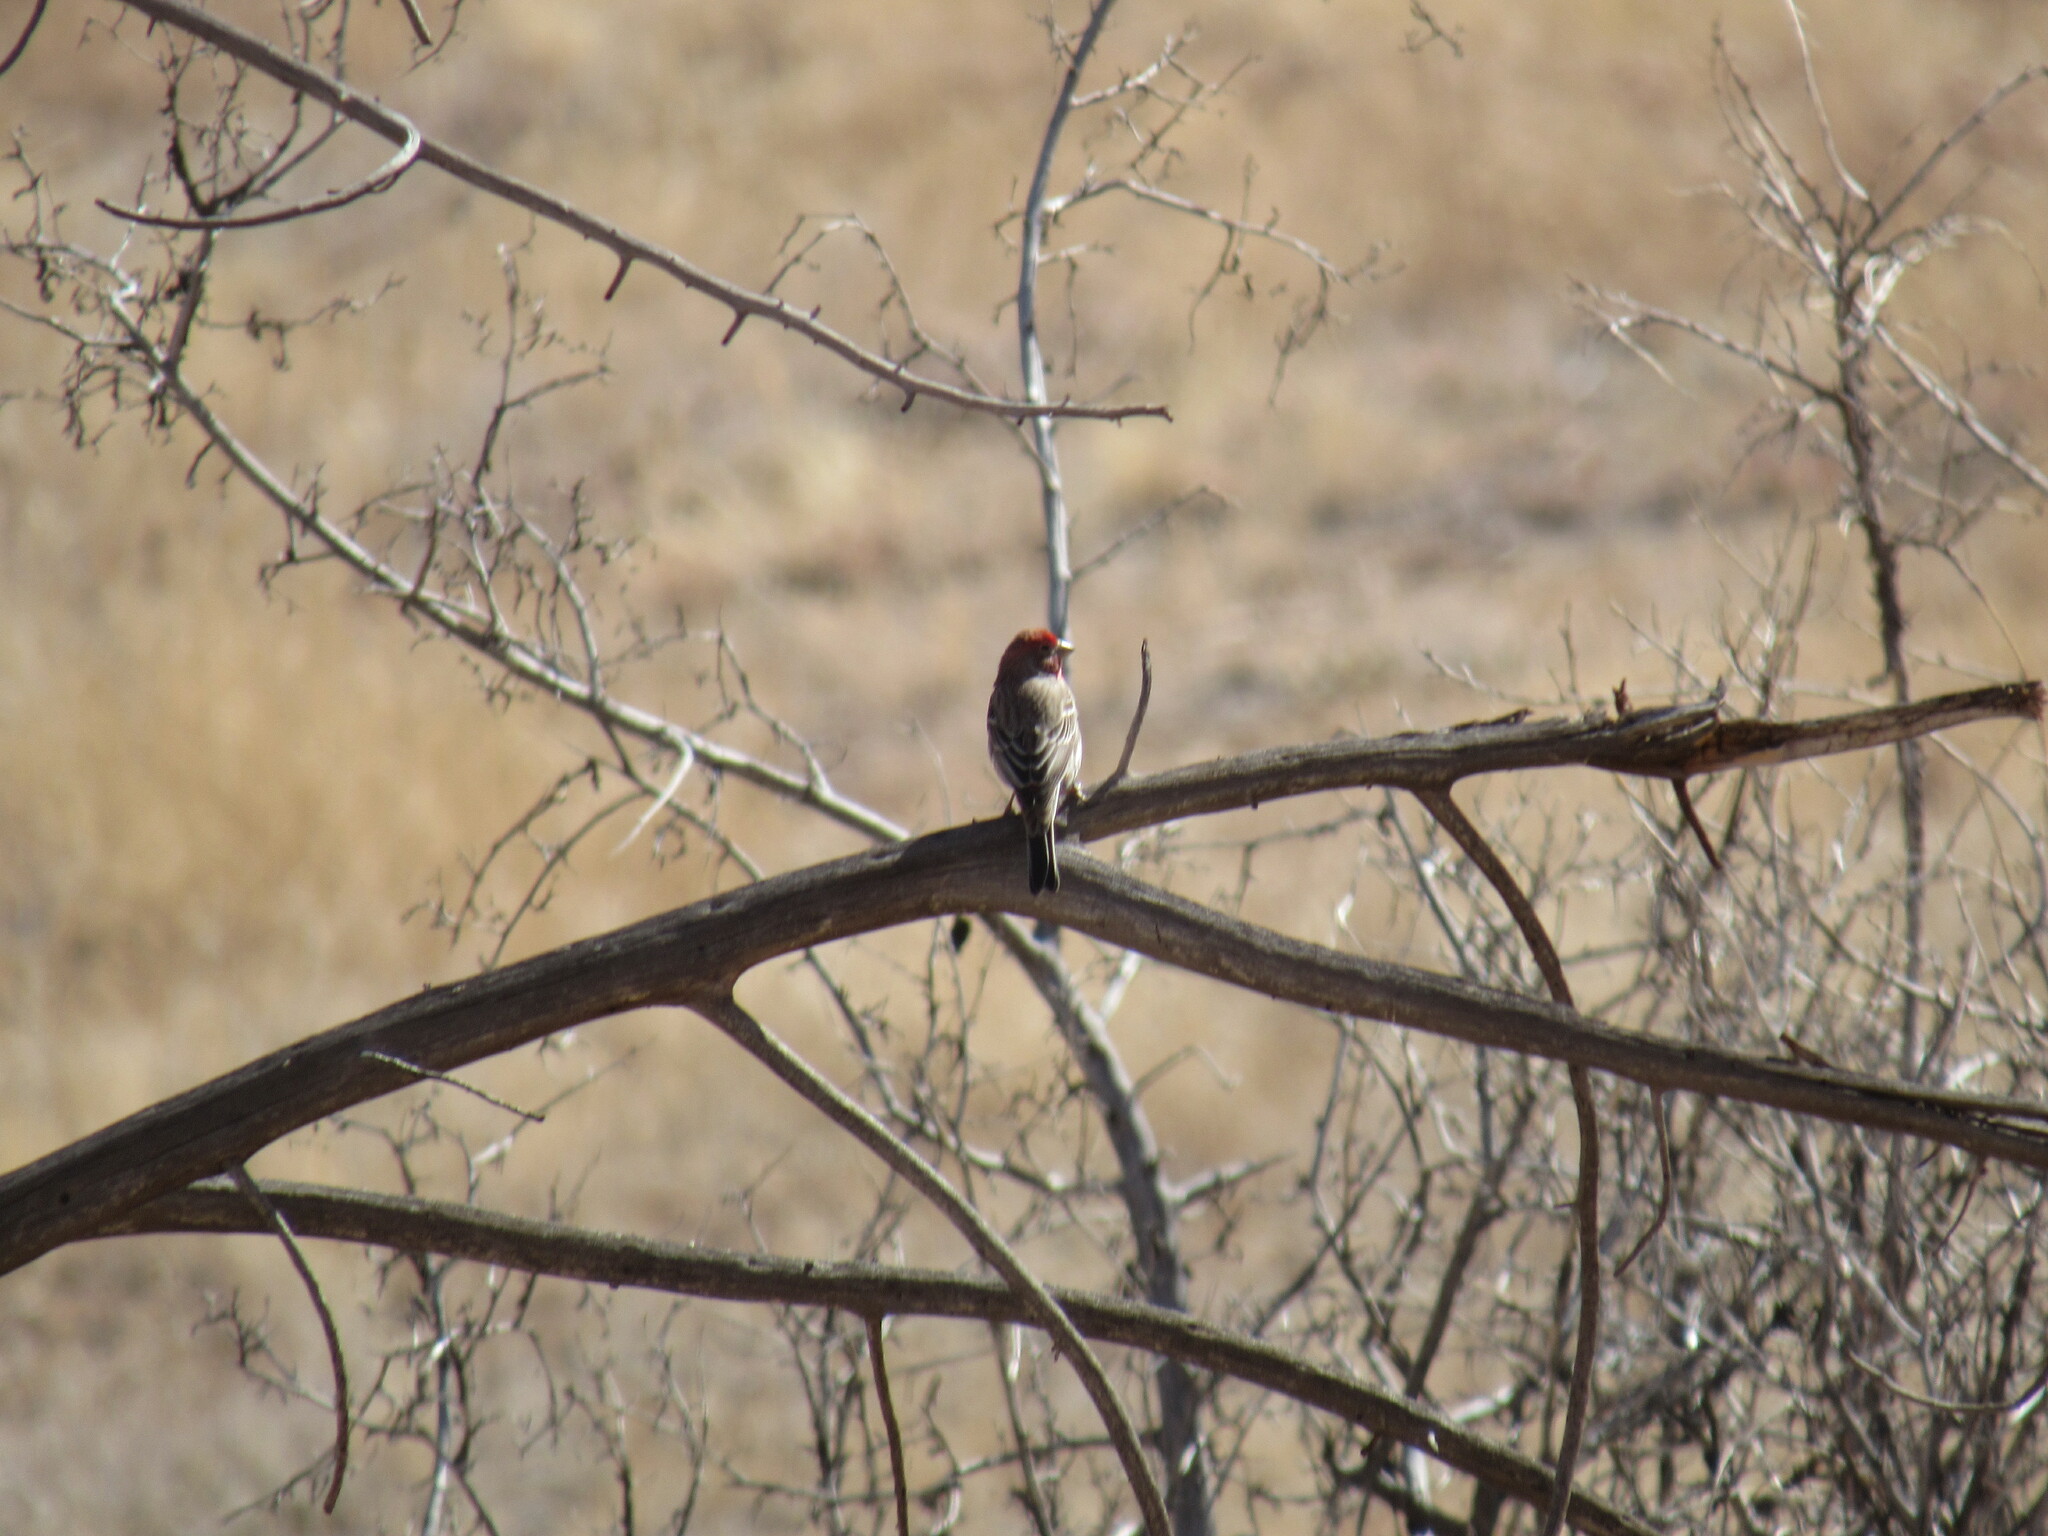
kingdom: Animalia
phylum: Chordata
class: Aves
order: Passeriformes
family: Fringillidae
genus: Haemorhous
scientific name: Haemorhous mexicanus
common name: House finch
